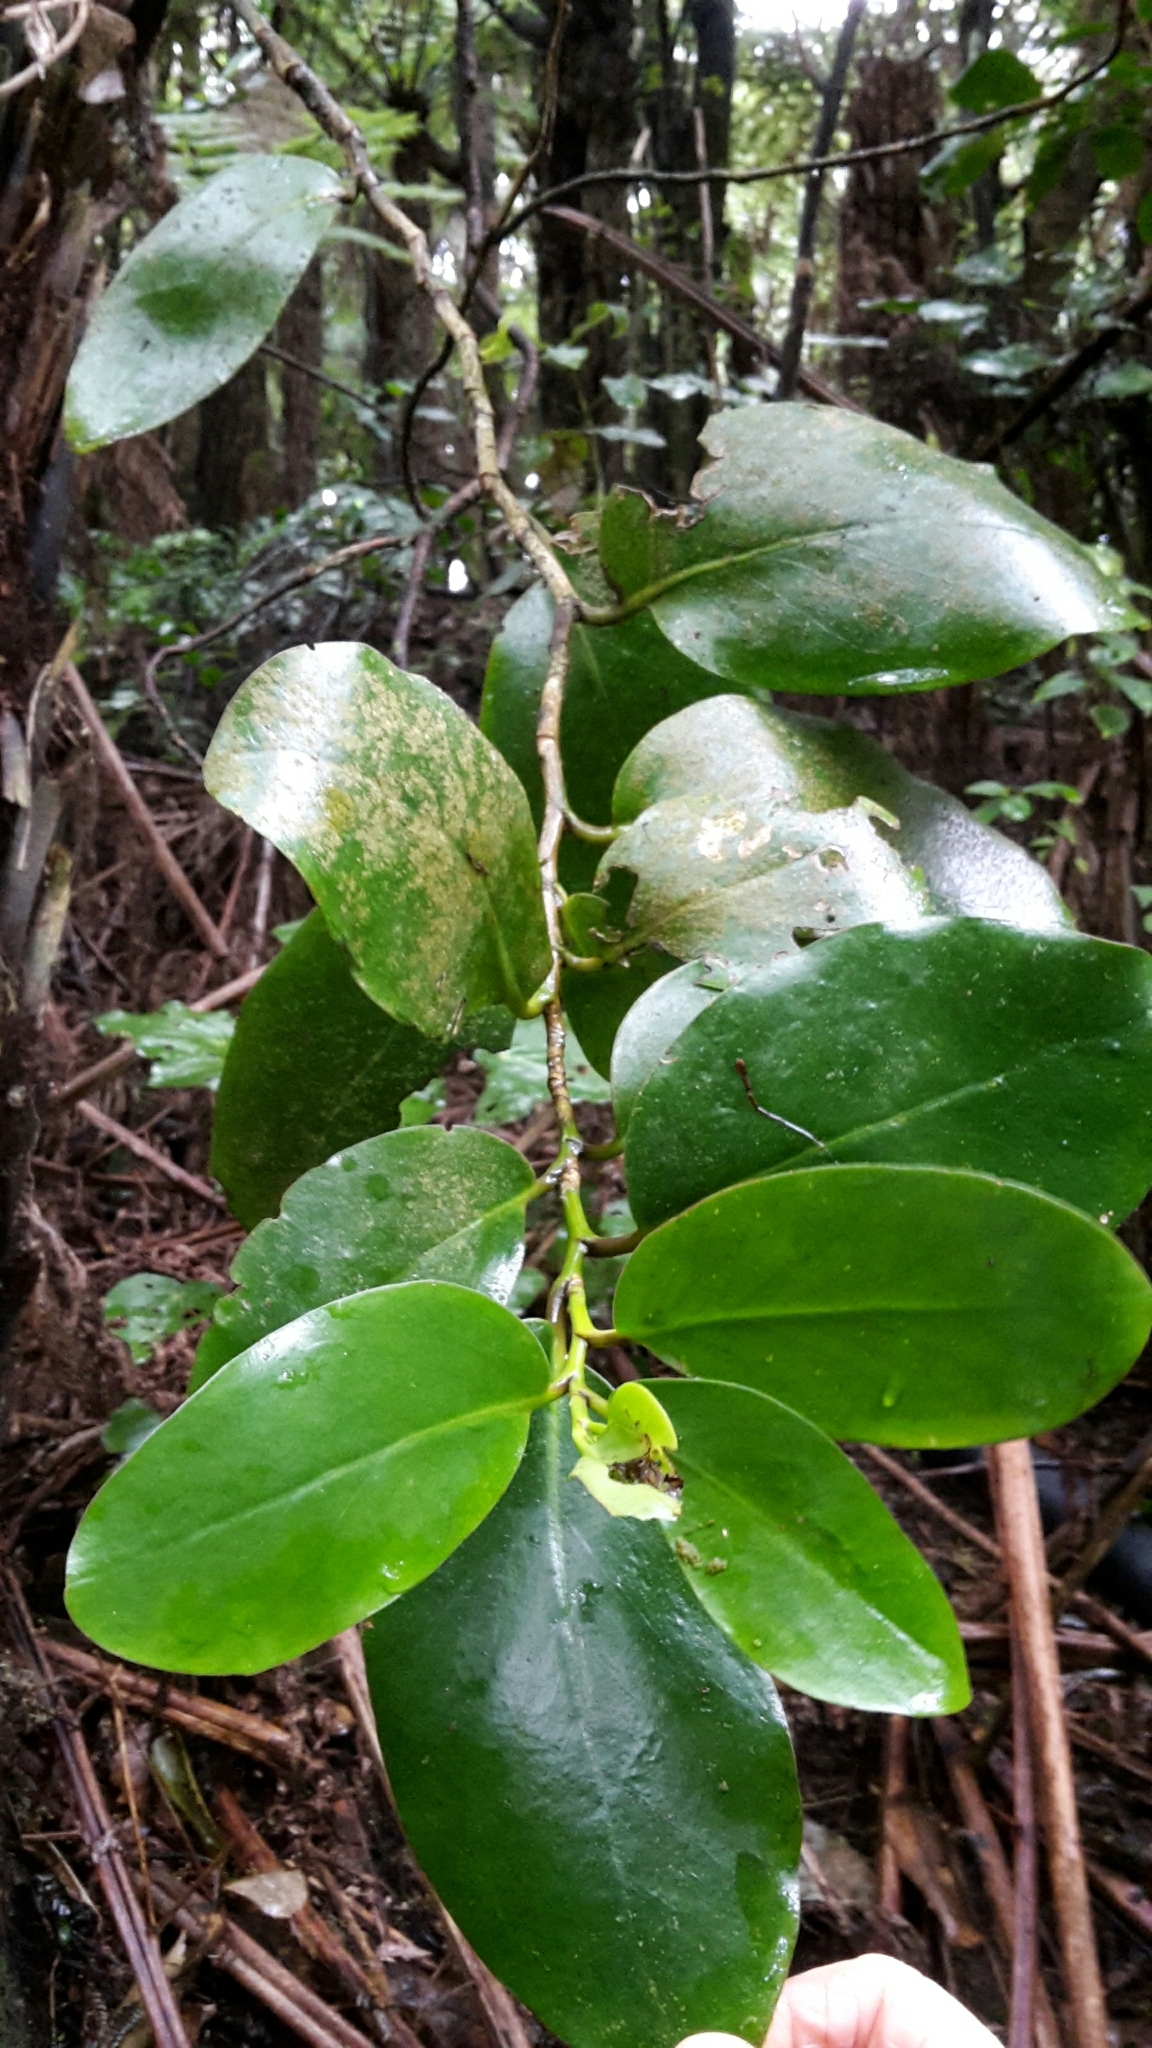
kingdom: Plantae
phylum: Tracheophyta
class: Magnoliopsida
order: Apiales
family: Griseliniaceae
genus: Griselinia
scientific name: Griselinia lucida
